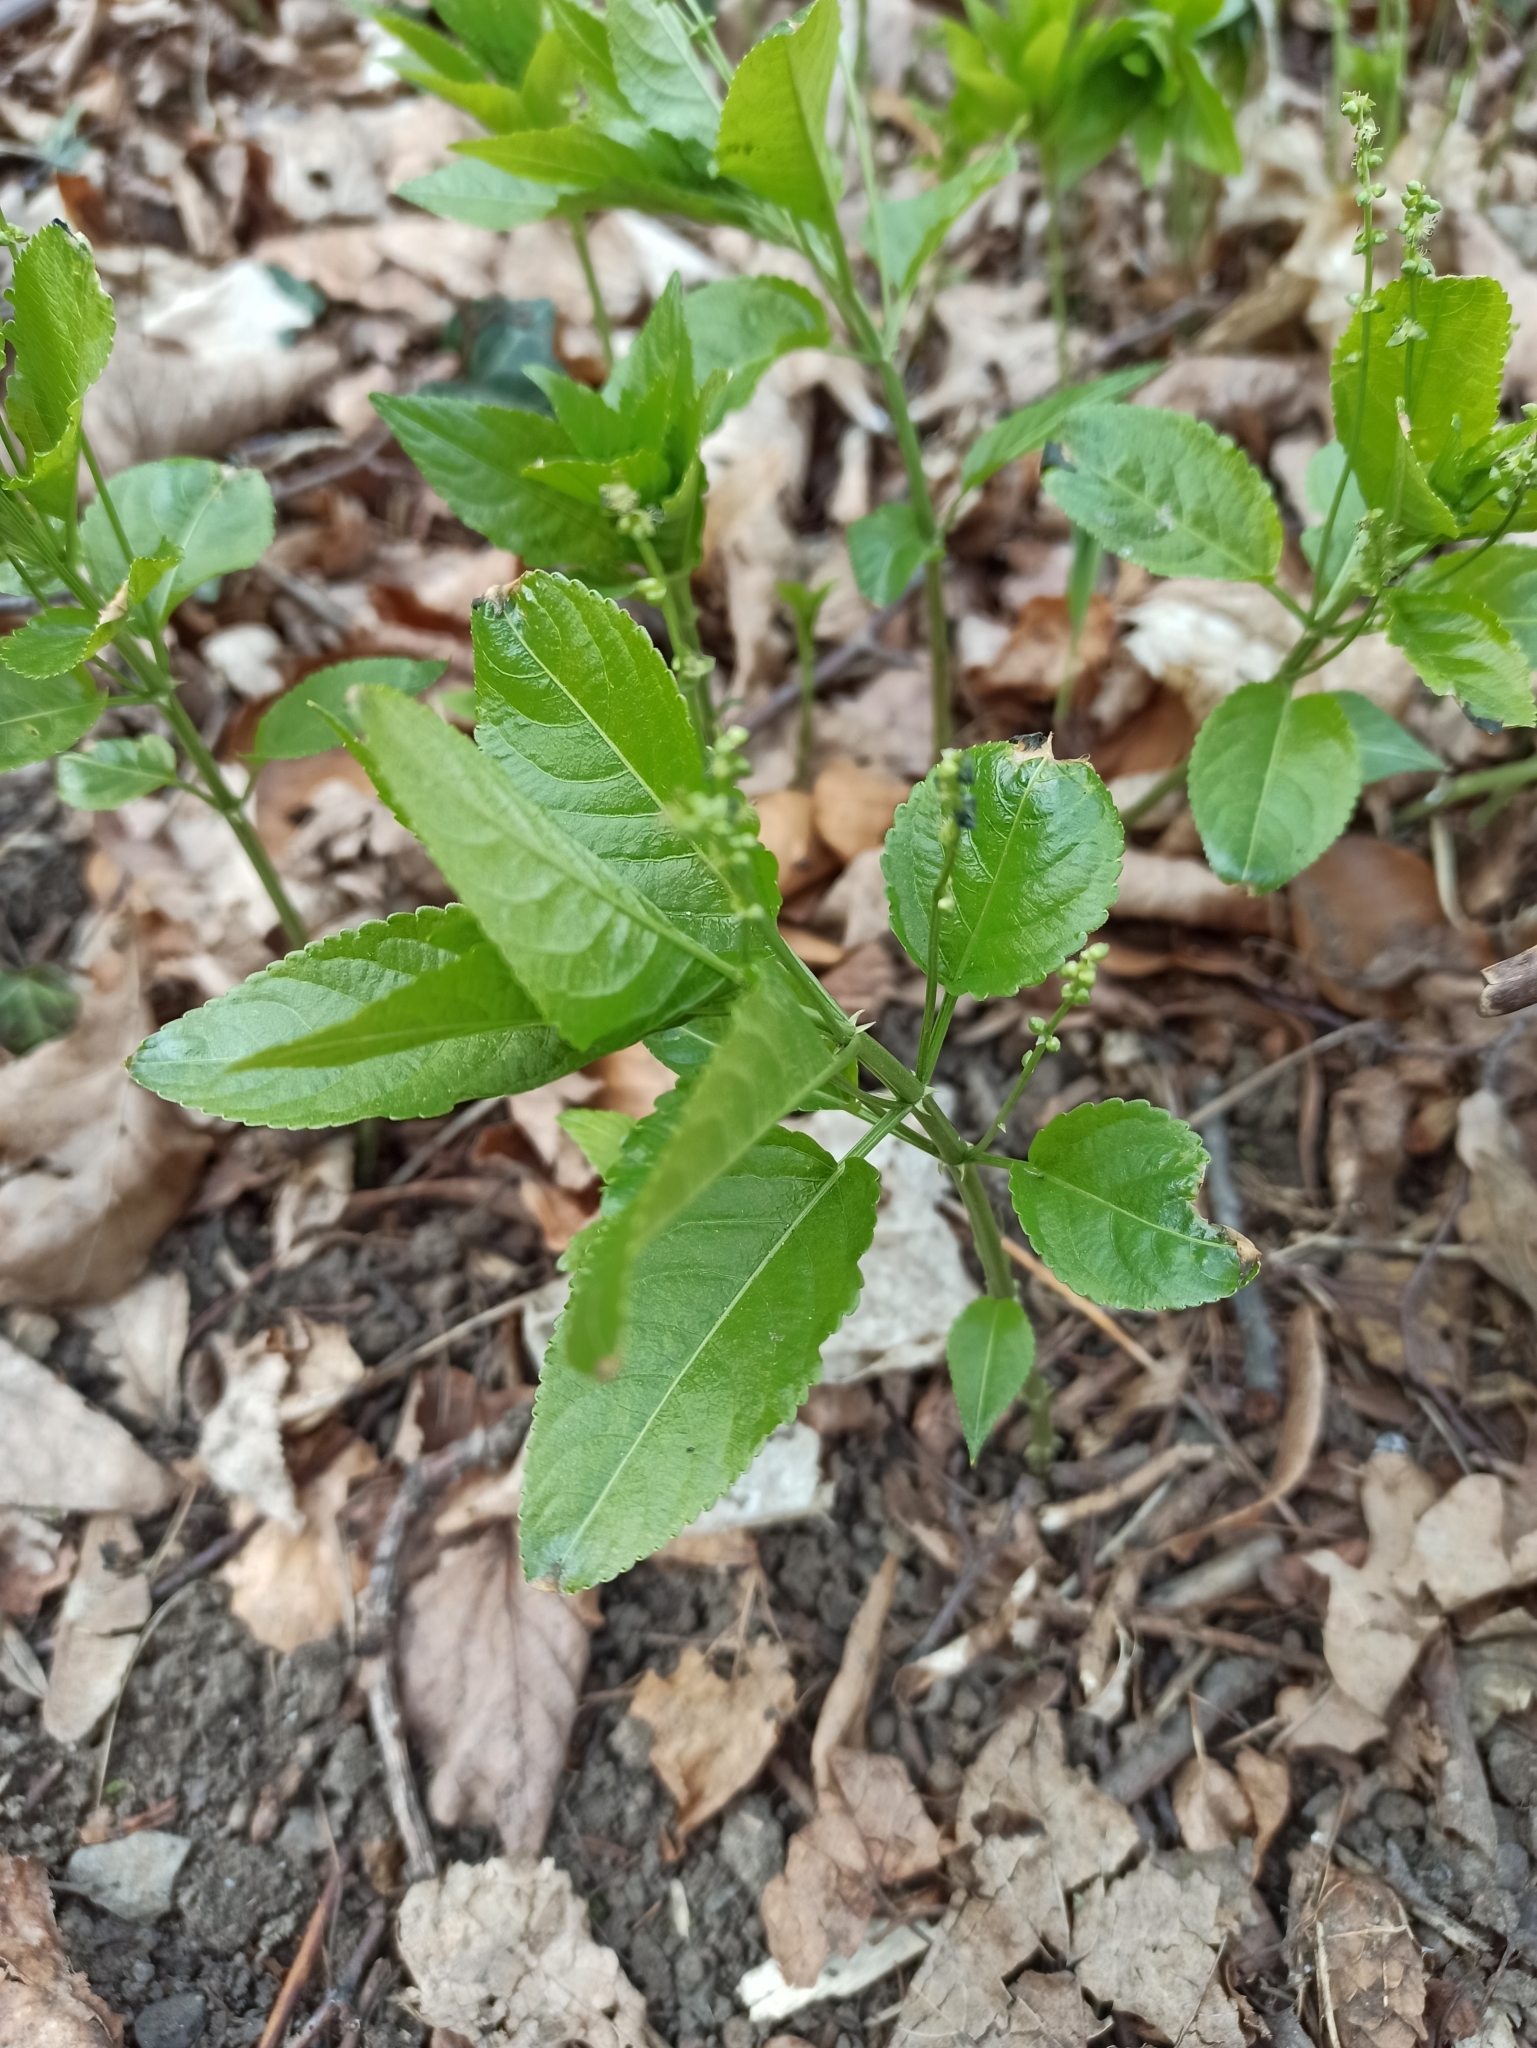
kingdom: Plantae
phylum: Tracheophyta
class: Magnoliopsida
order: Malpighiales
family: Euphorbiaceae
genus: Mercurialis
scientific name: Mercurialis perennis
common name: Dog mercury
